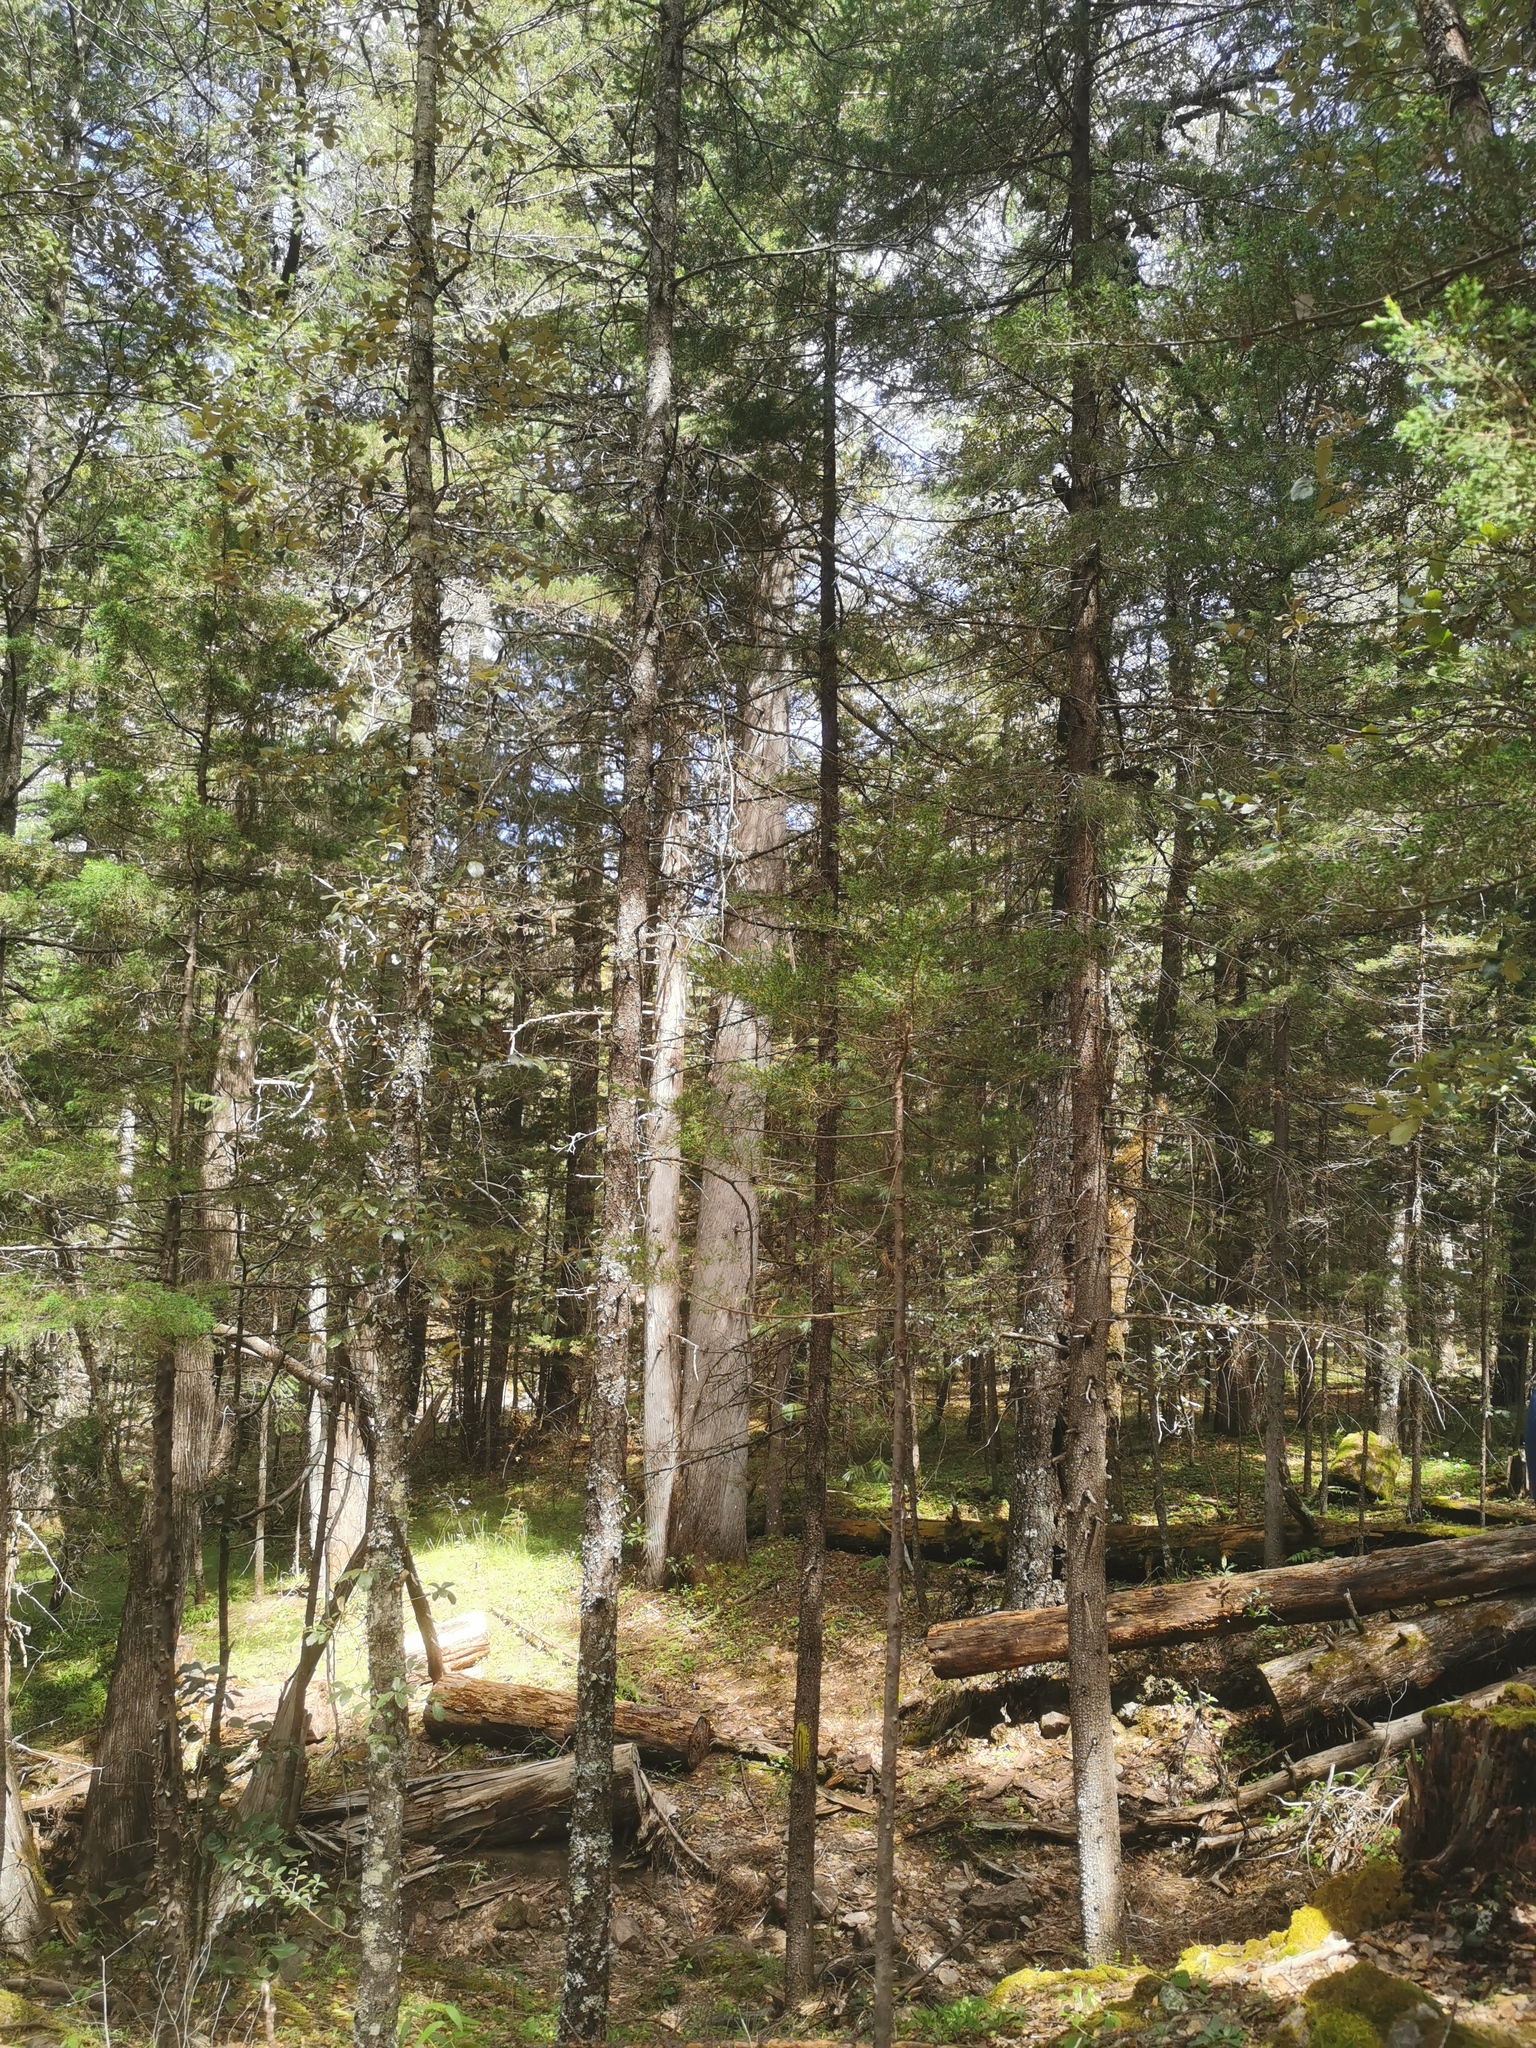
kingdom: Plantae
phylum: Tracheophyta
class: Pinopsida
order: Pinales
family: Cupressaceae
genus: Cupressus
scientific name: Cupressus lusitanica
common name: Mexican cypress
